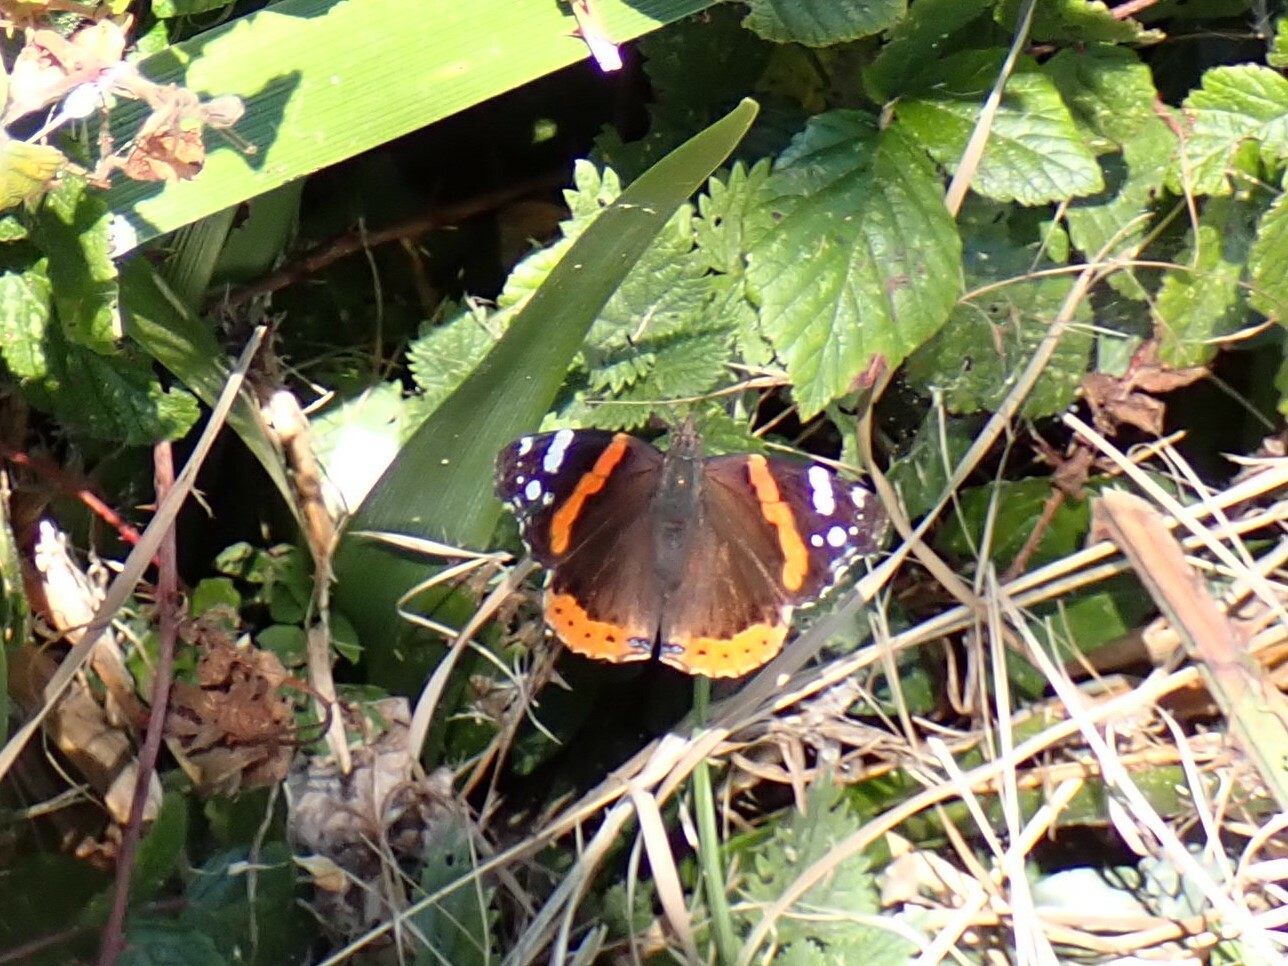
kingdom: Animalia
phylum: Arthropoda
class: Insecta
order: Lepidoptera
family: Nymphalidae
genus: Vanessa
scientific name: Vanessa atalanta
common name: Red admiral
